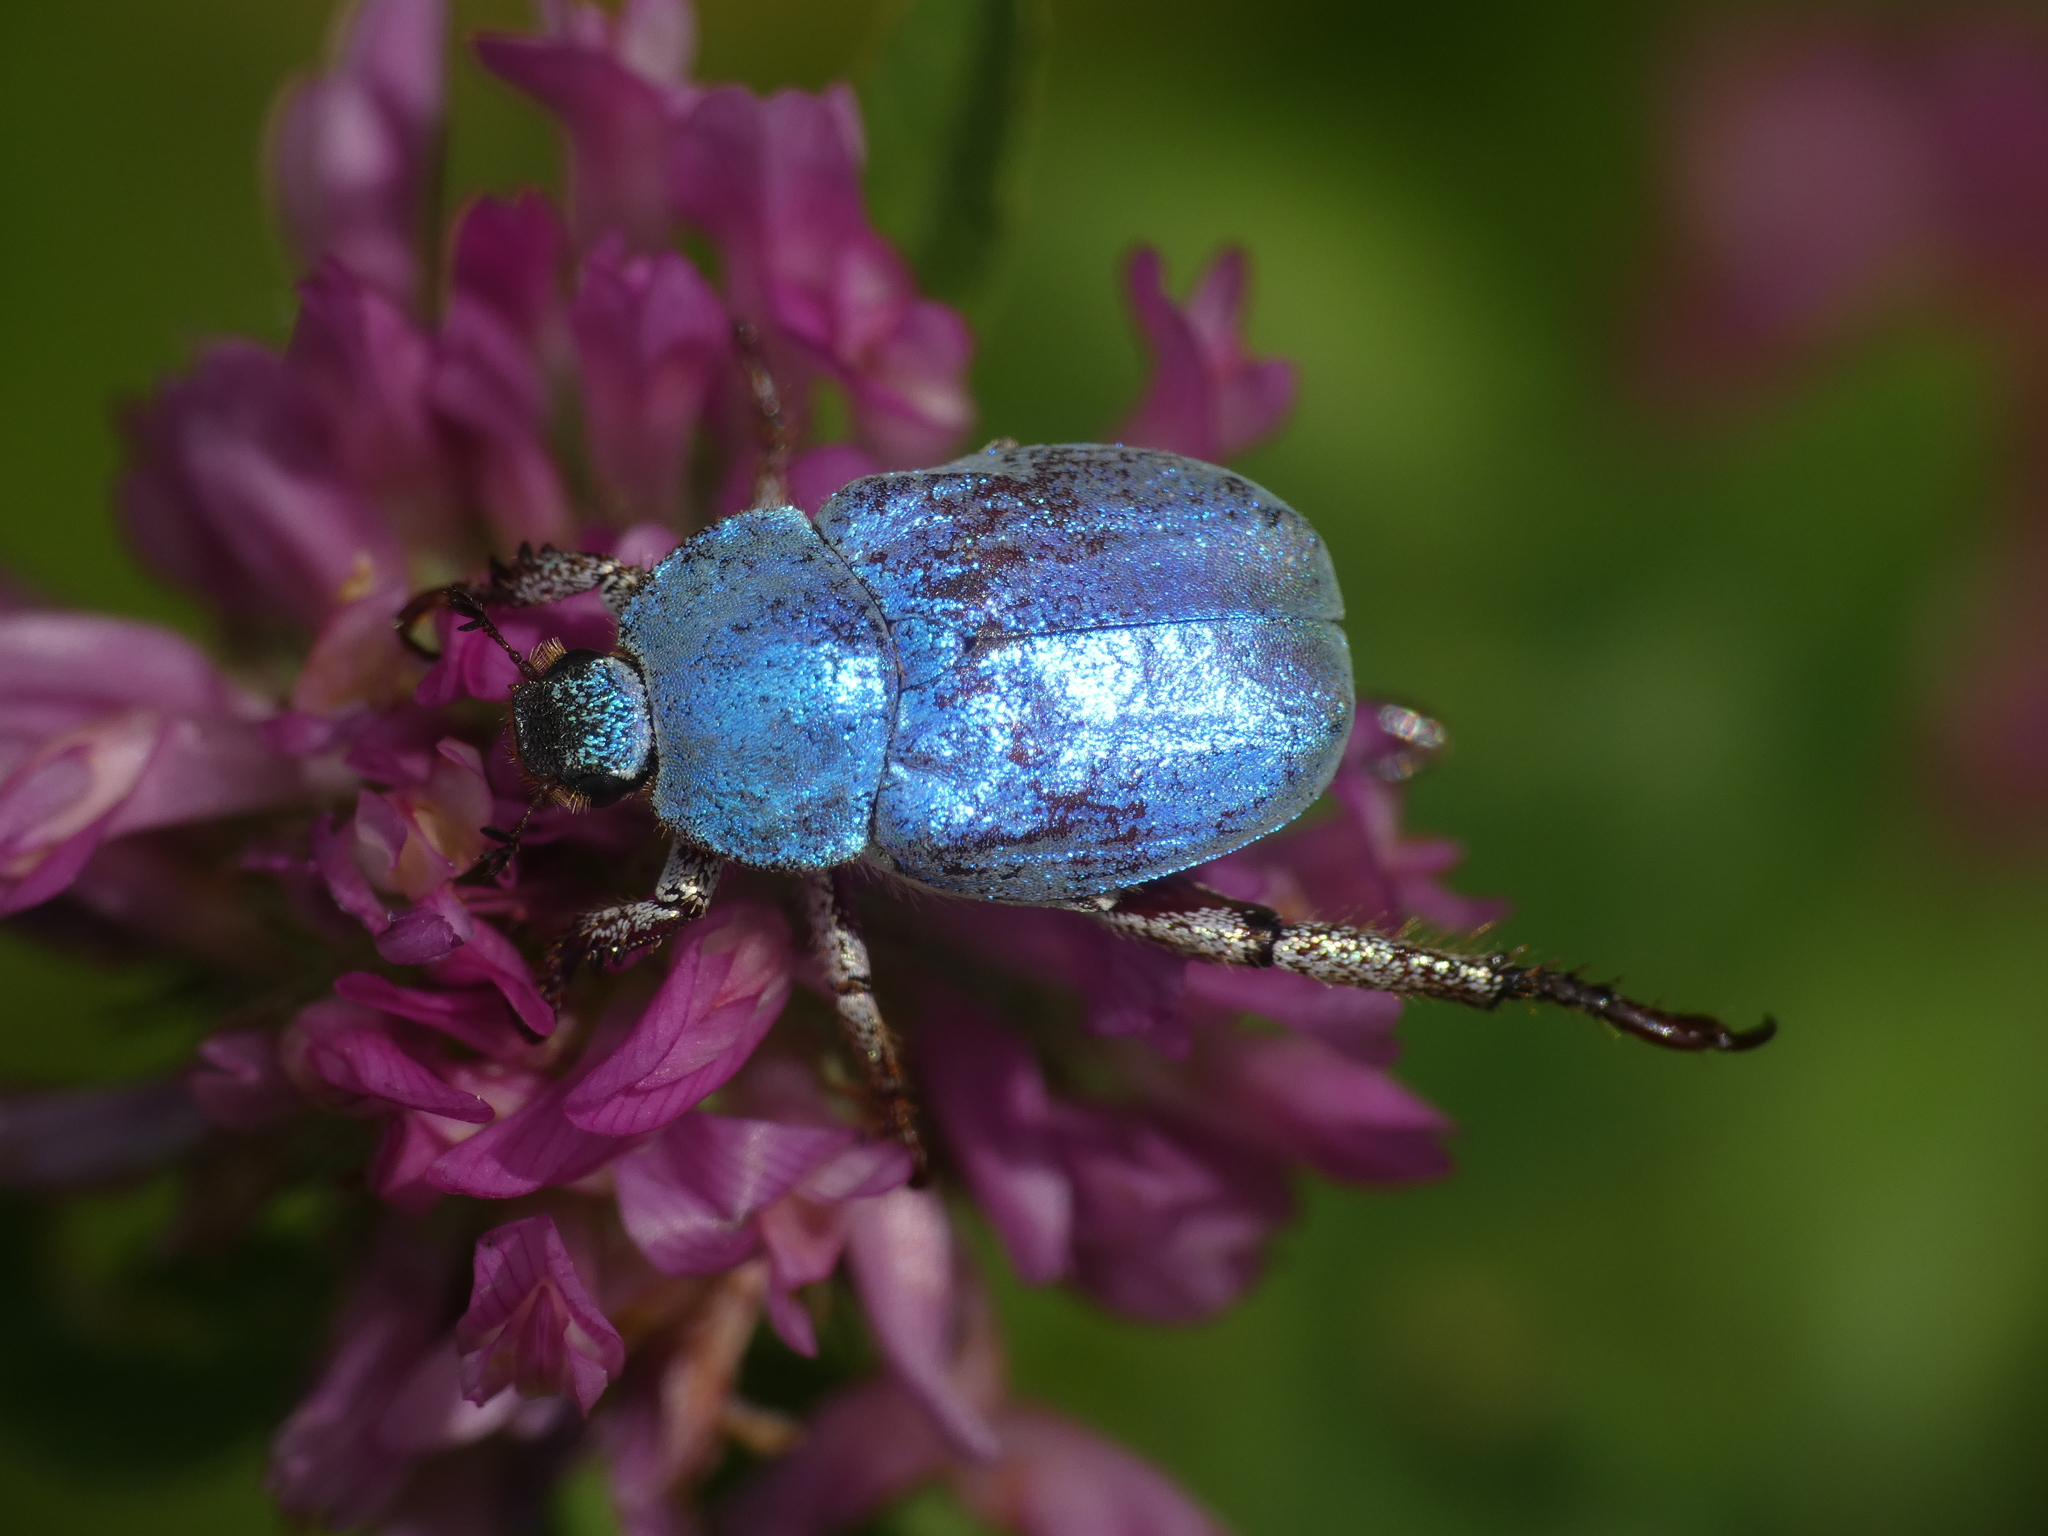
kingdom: Animalia
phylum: Arthropoda
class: Insecta
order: Coleoptera
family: Scarabaeidae
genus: Hoplia
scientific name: Hoplia coerulea
